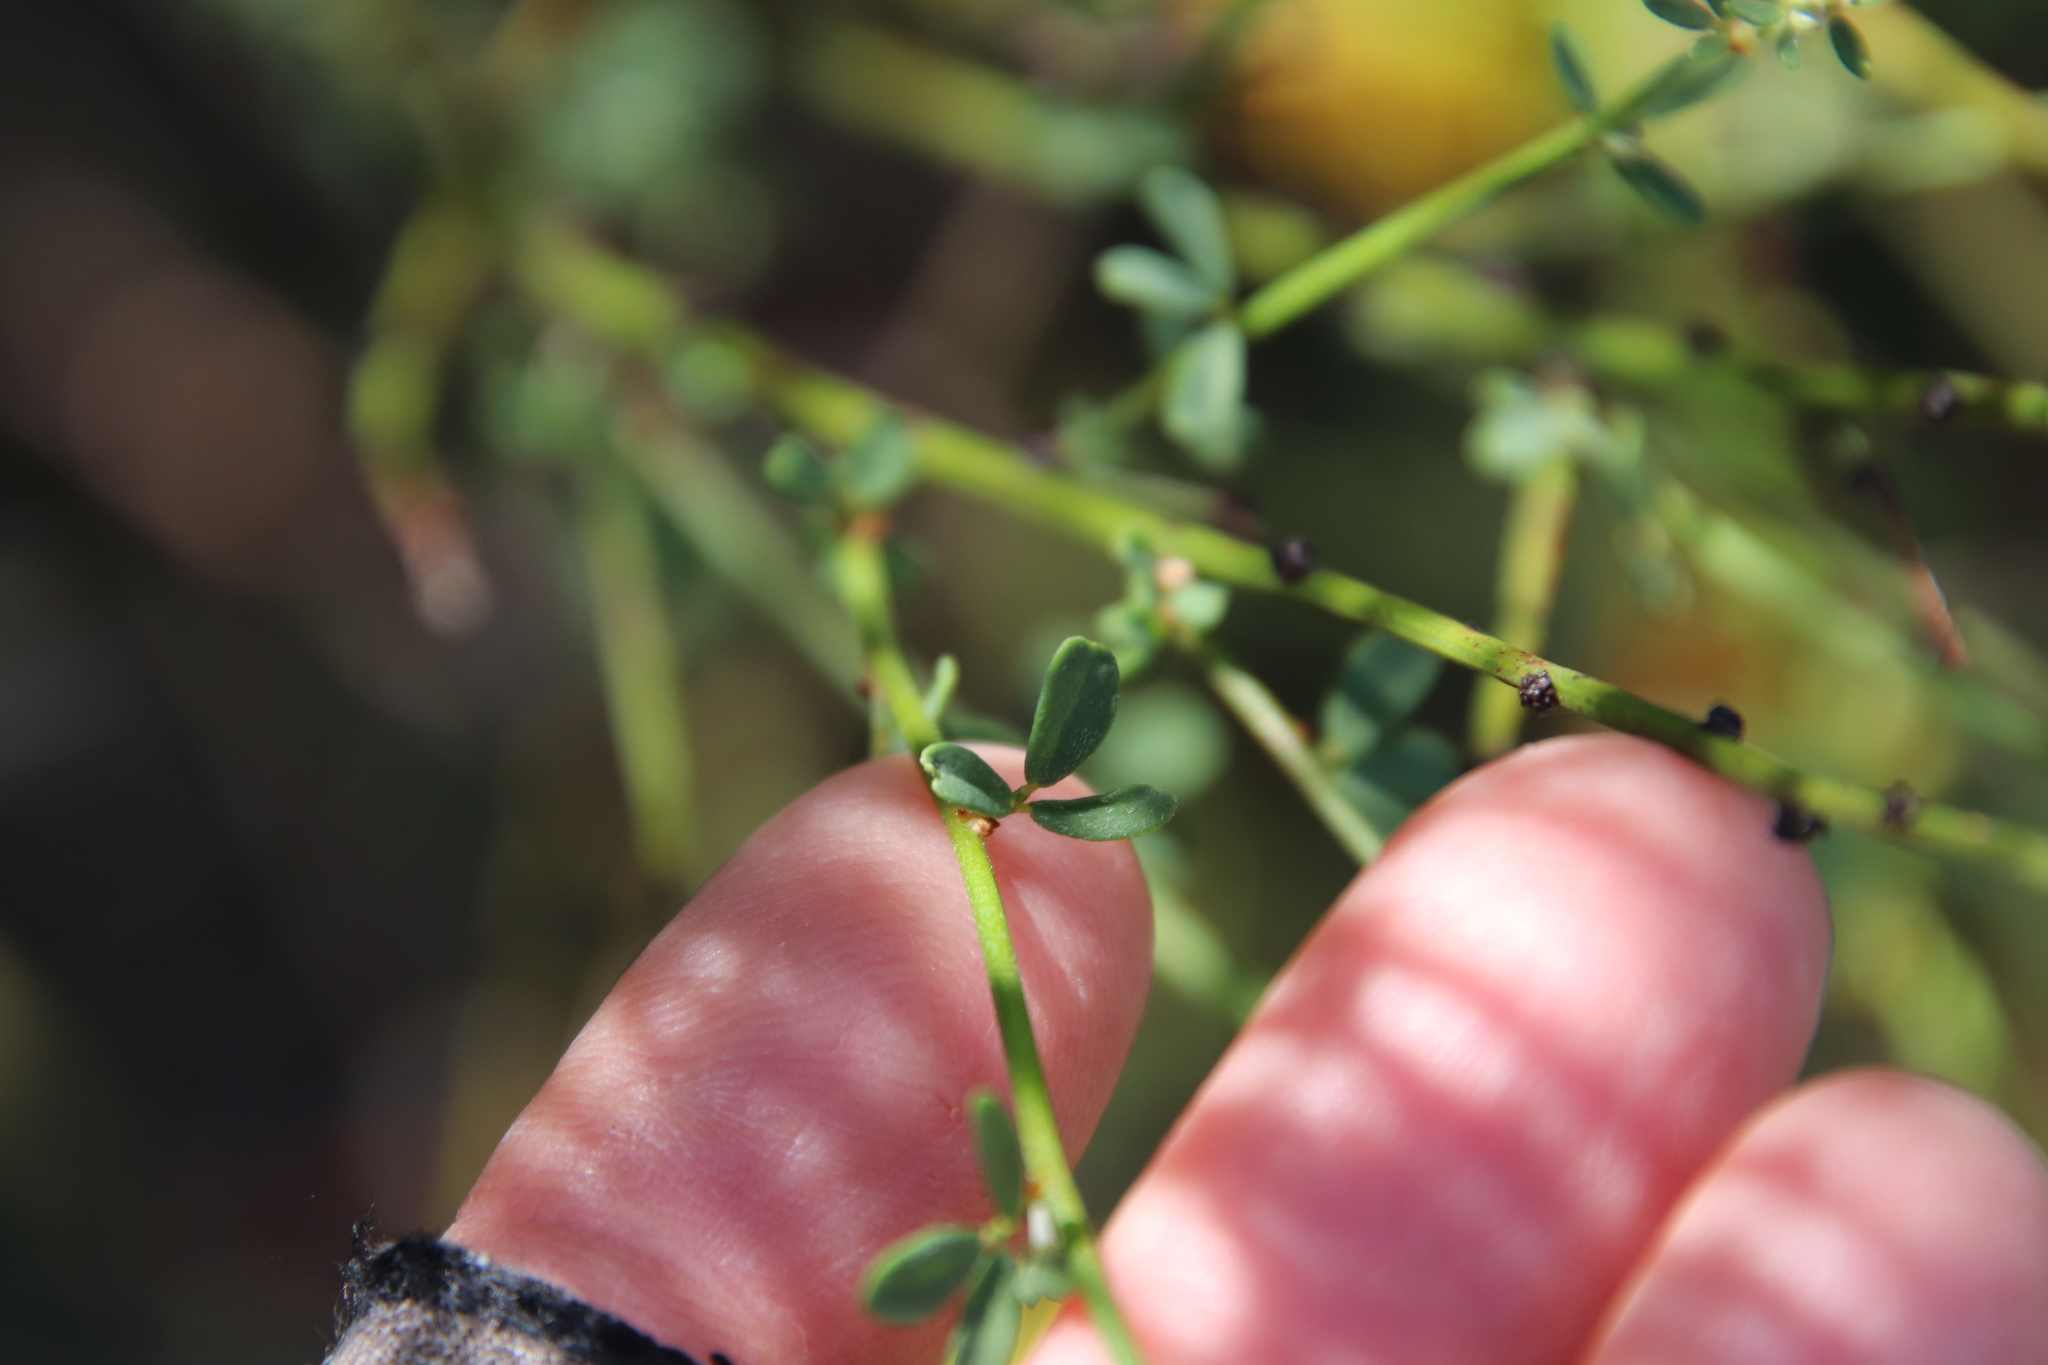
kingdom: Plantae
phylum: Tracheophyta
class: Magnoliopsida
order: Fabales
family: Fabaceae
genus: Acmispon
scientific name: Acmispon glaber
